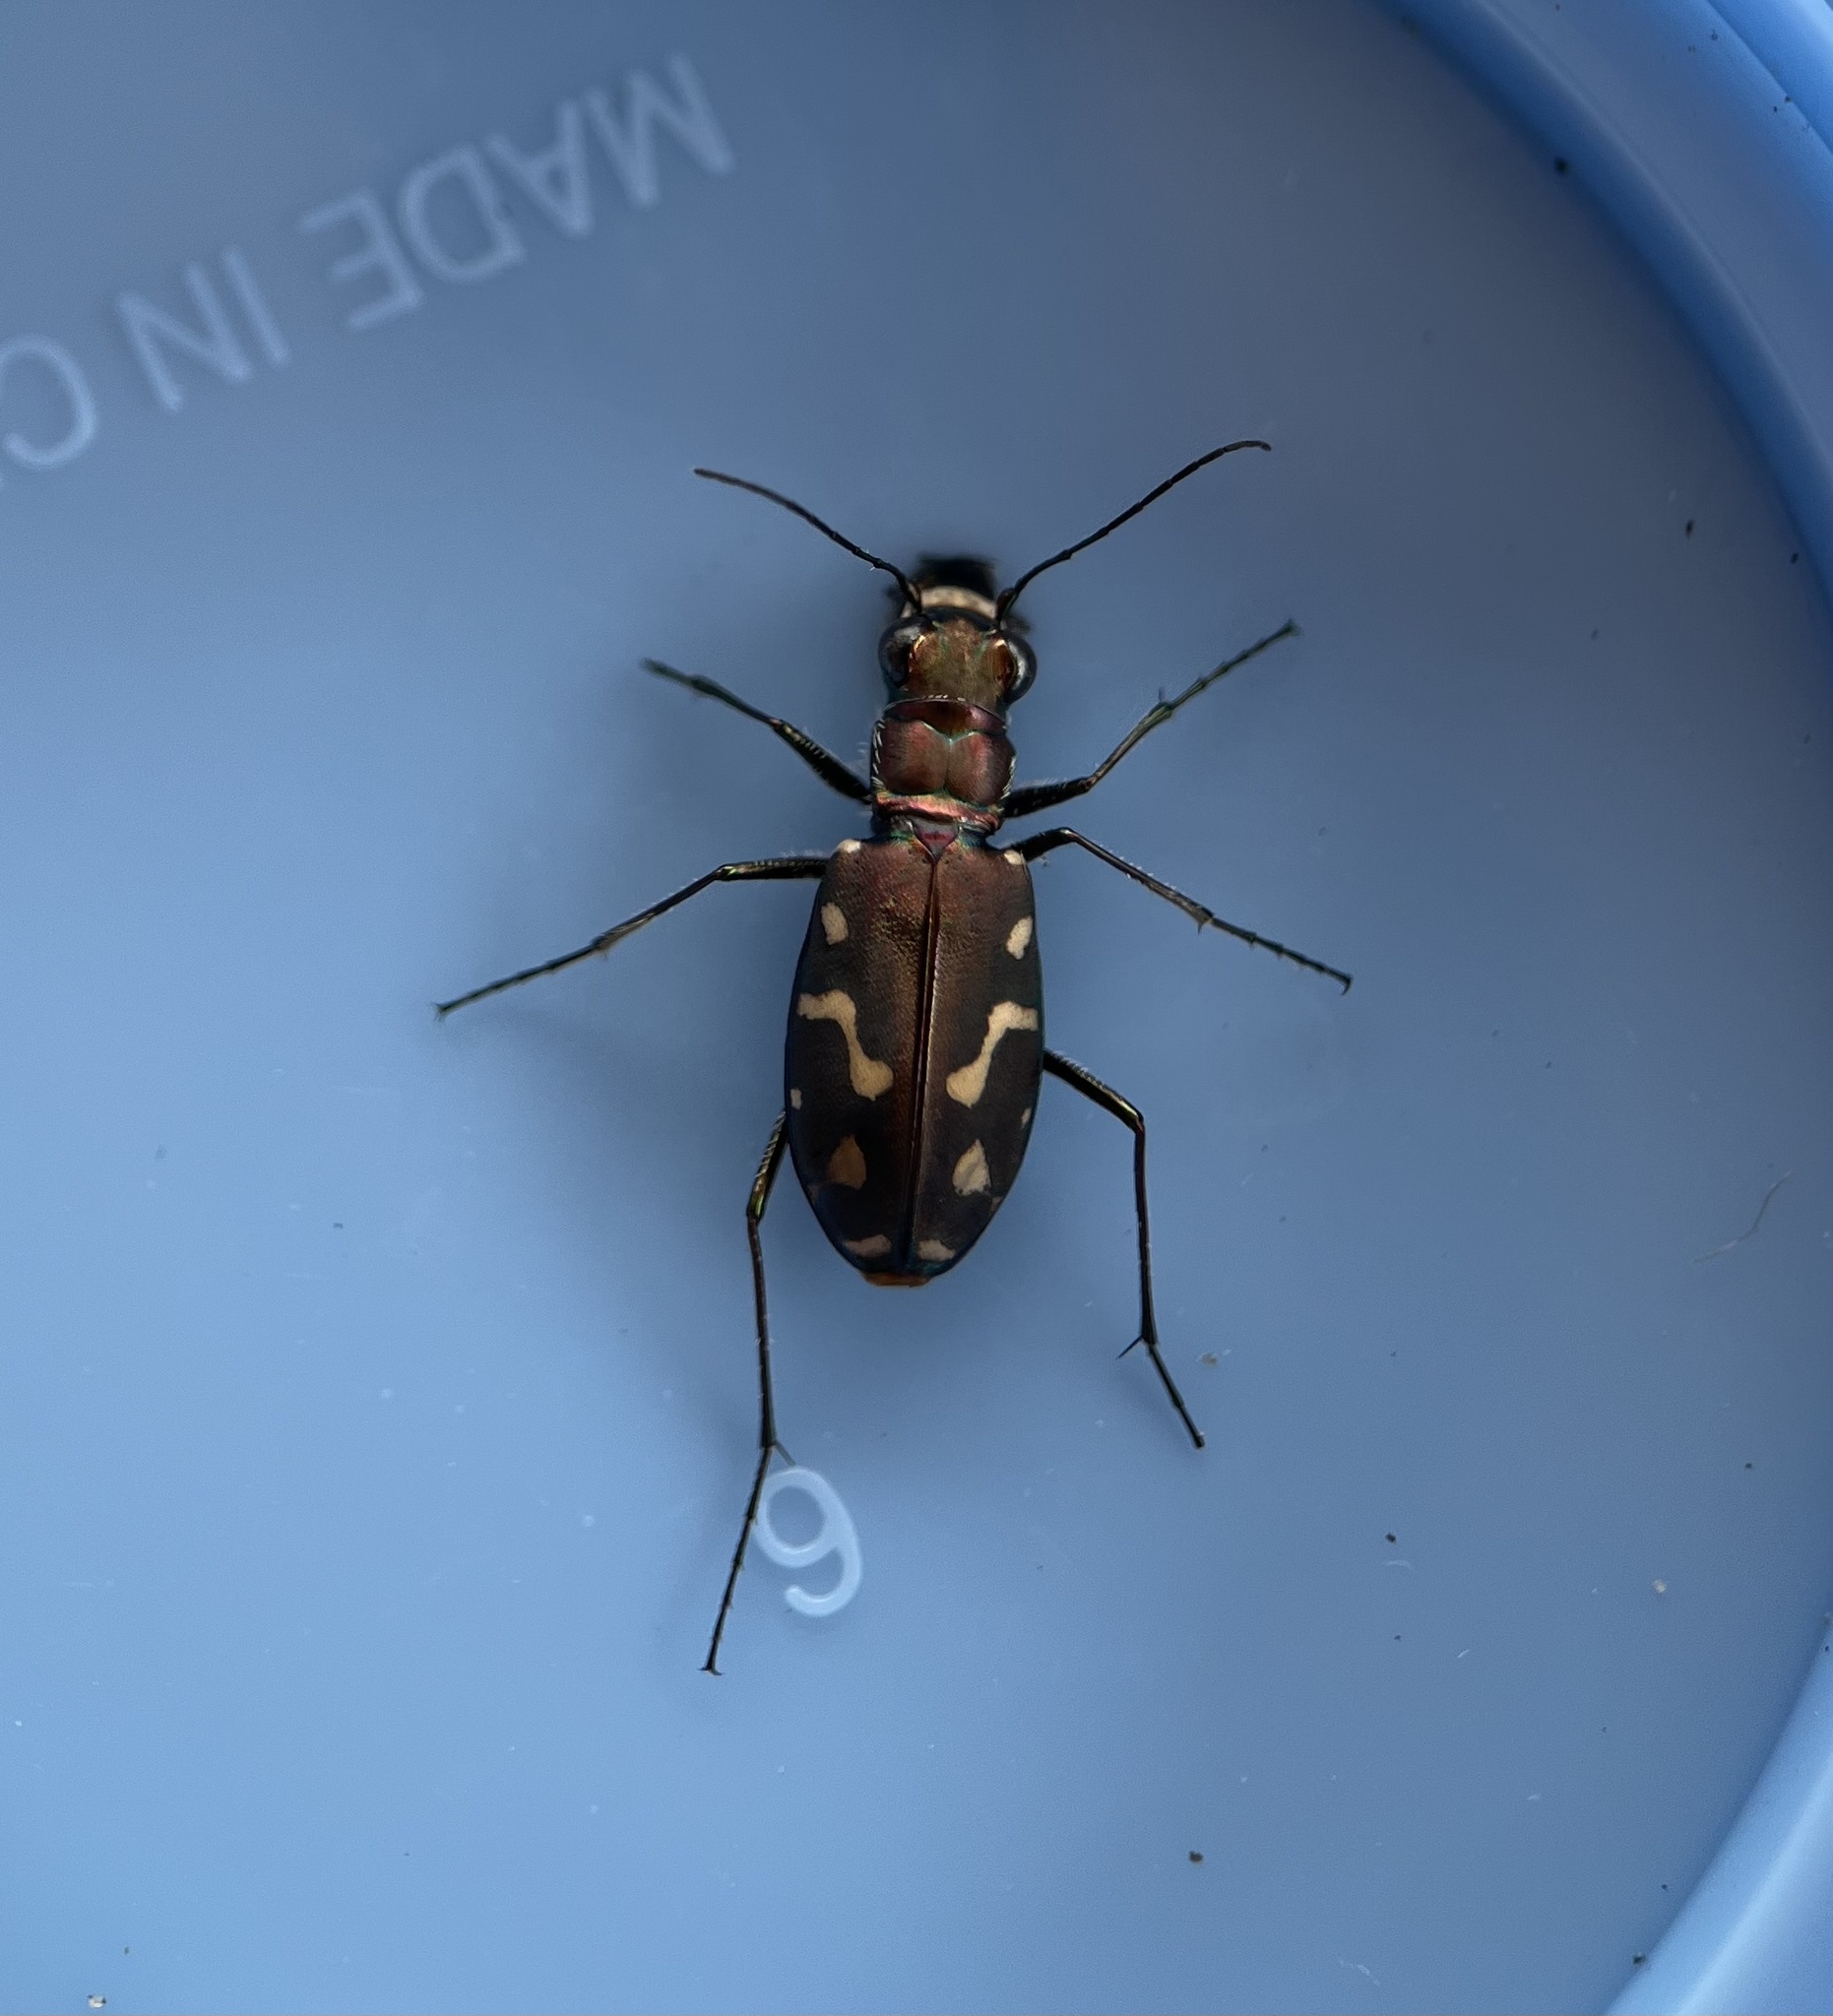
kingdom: Animalia
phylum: Arthropoda
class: Insecta
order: Coleoptera
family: Carabidae
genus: Cicindela
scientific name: Cicindela hemorrhagica
